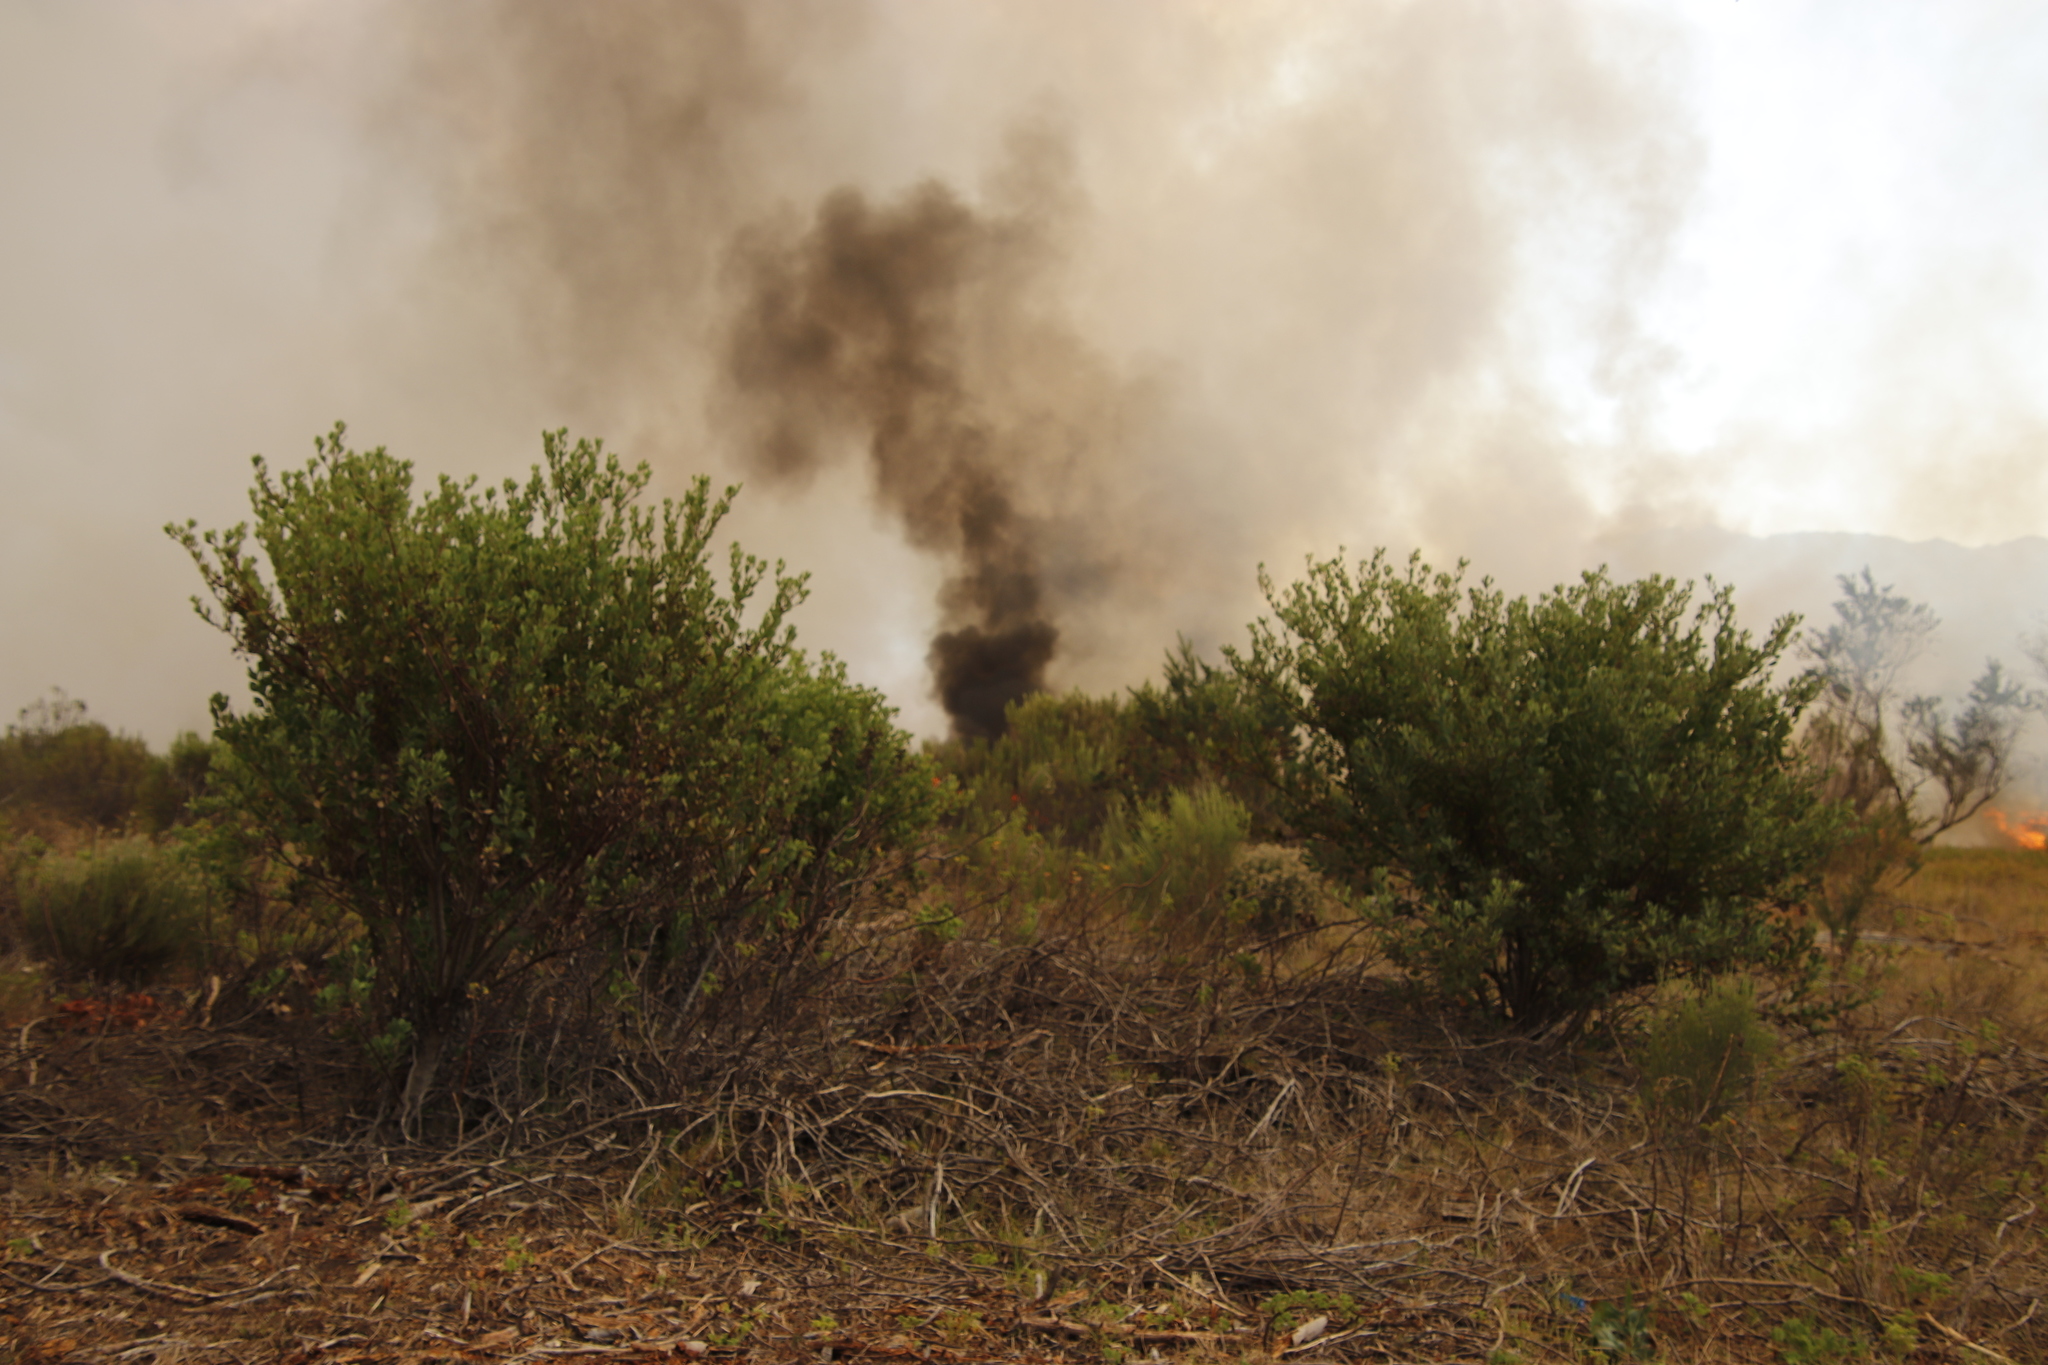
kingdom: Plantae
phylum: Tracheophyta
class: Magnoliopsida
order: Asterales
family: Asteraceae
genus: Osteospermum
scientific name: Osteospermum moniliferum
